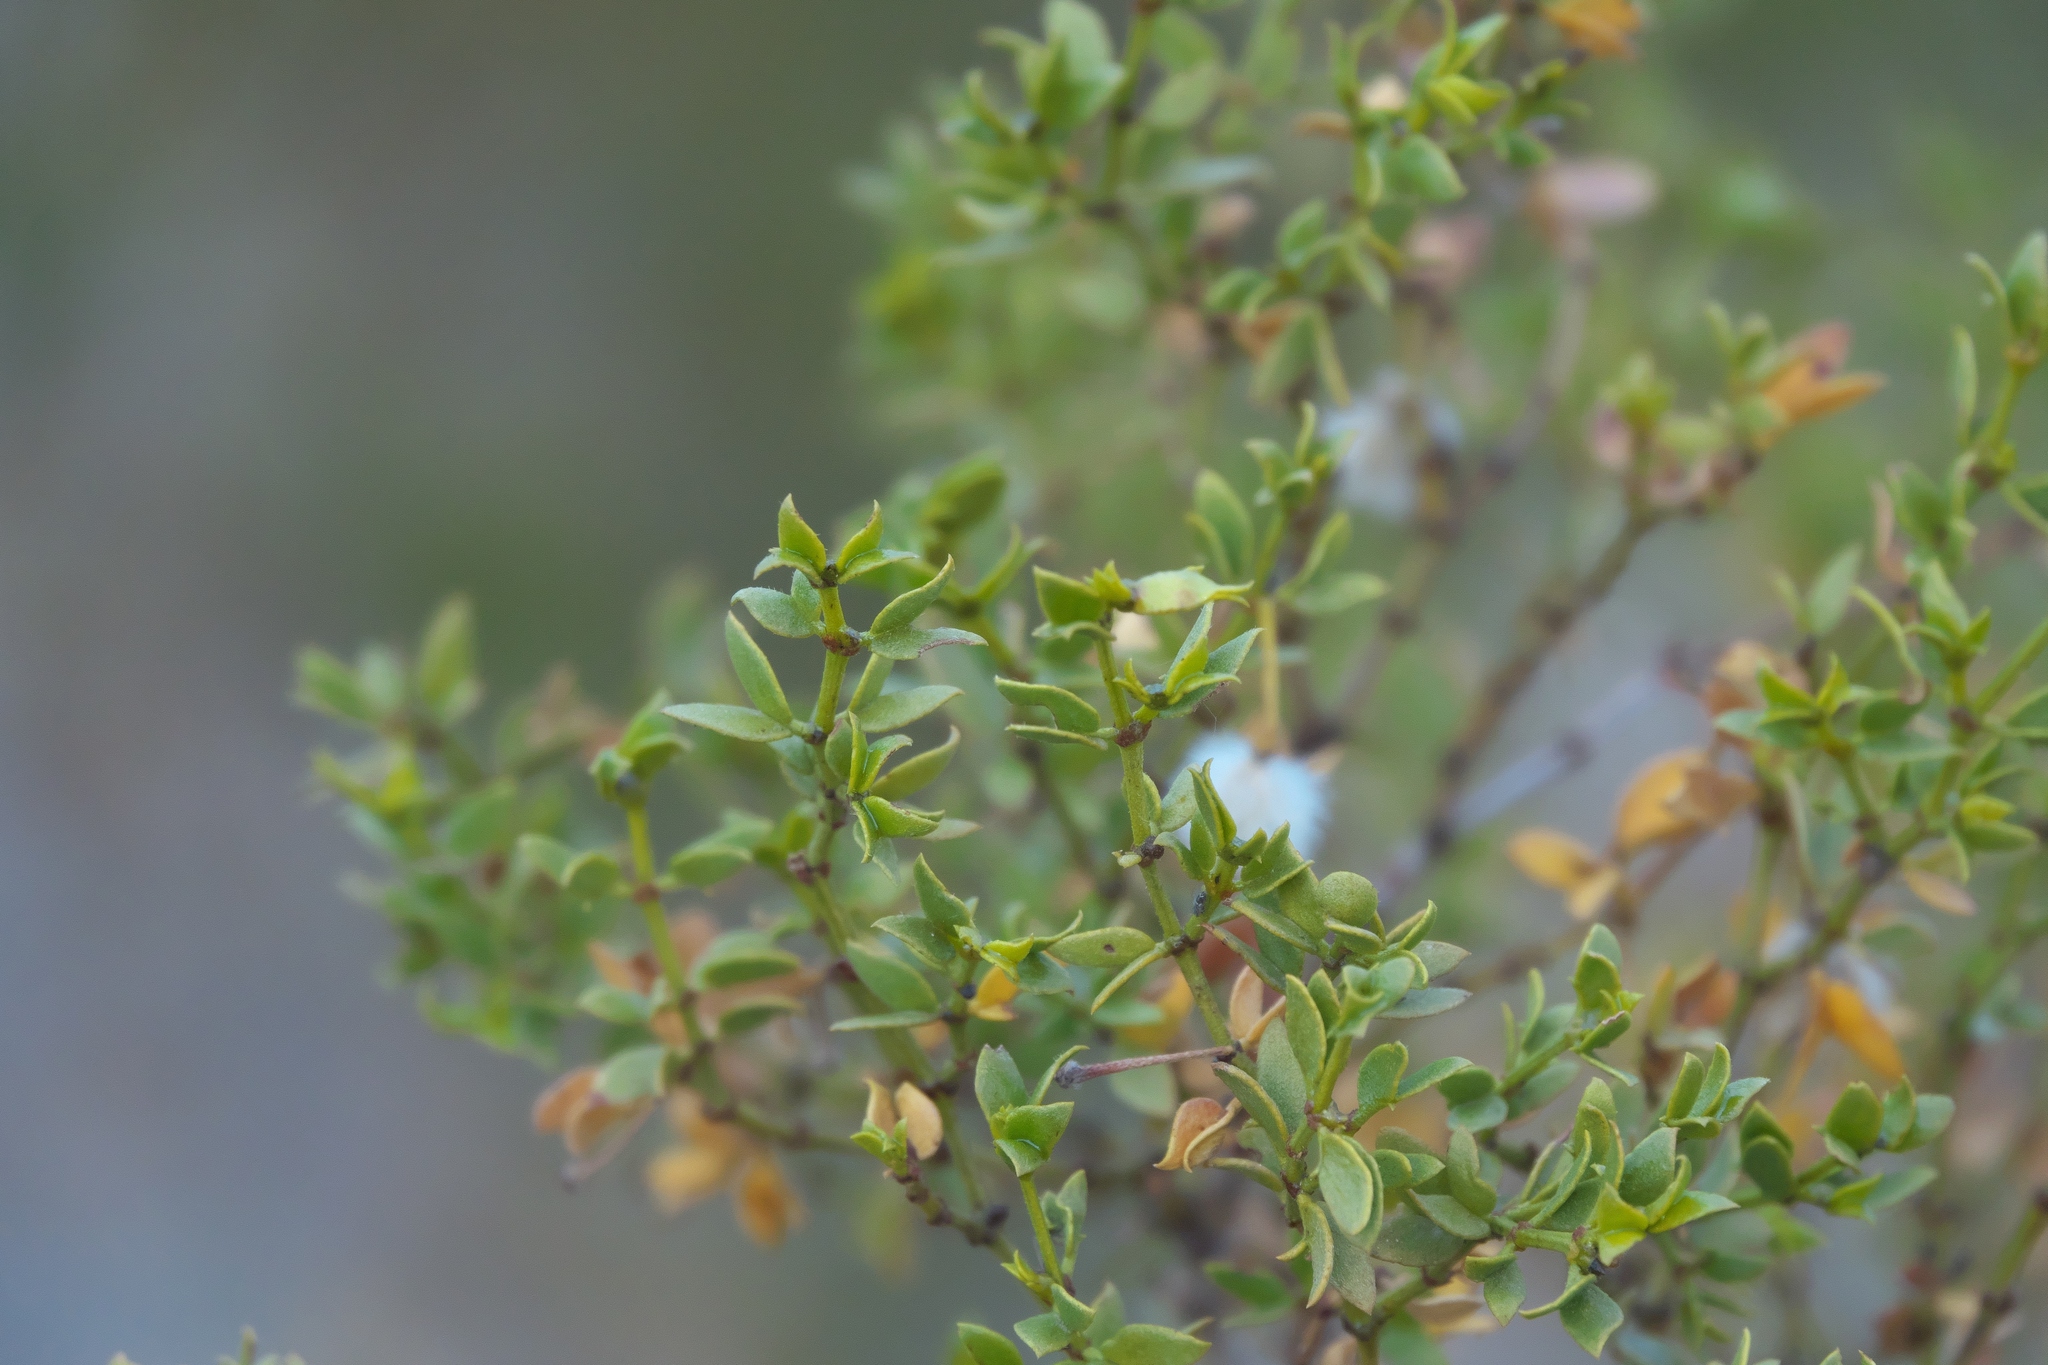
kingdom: Plantae
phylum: Tracheophyta
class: Magnoliopsida
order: Zygophyllales
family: Zygophyllaceae
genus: Larrea
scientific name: Larrea tridentata
